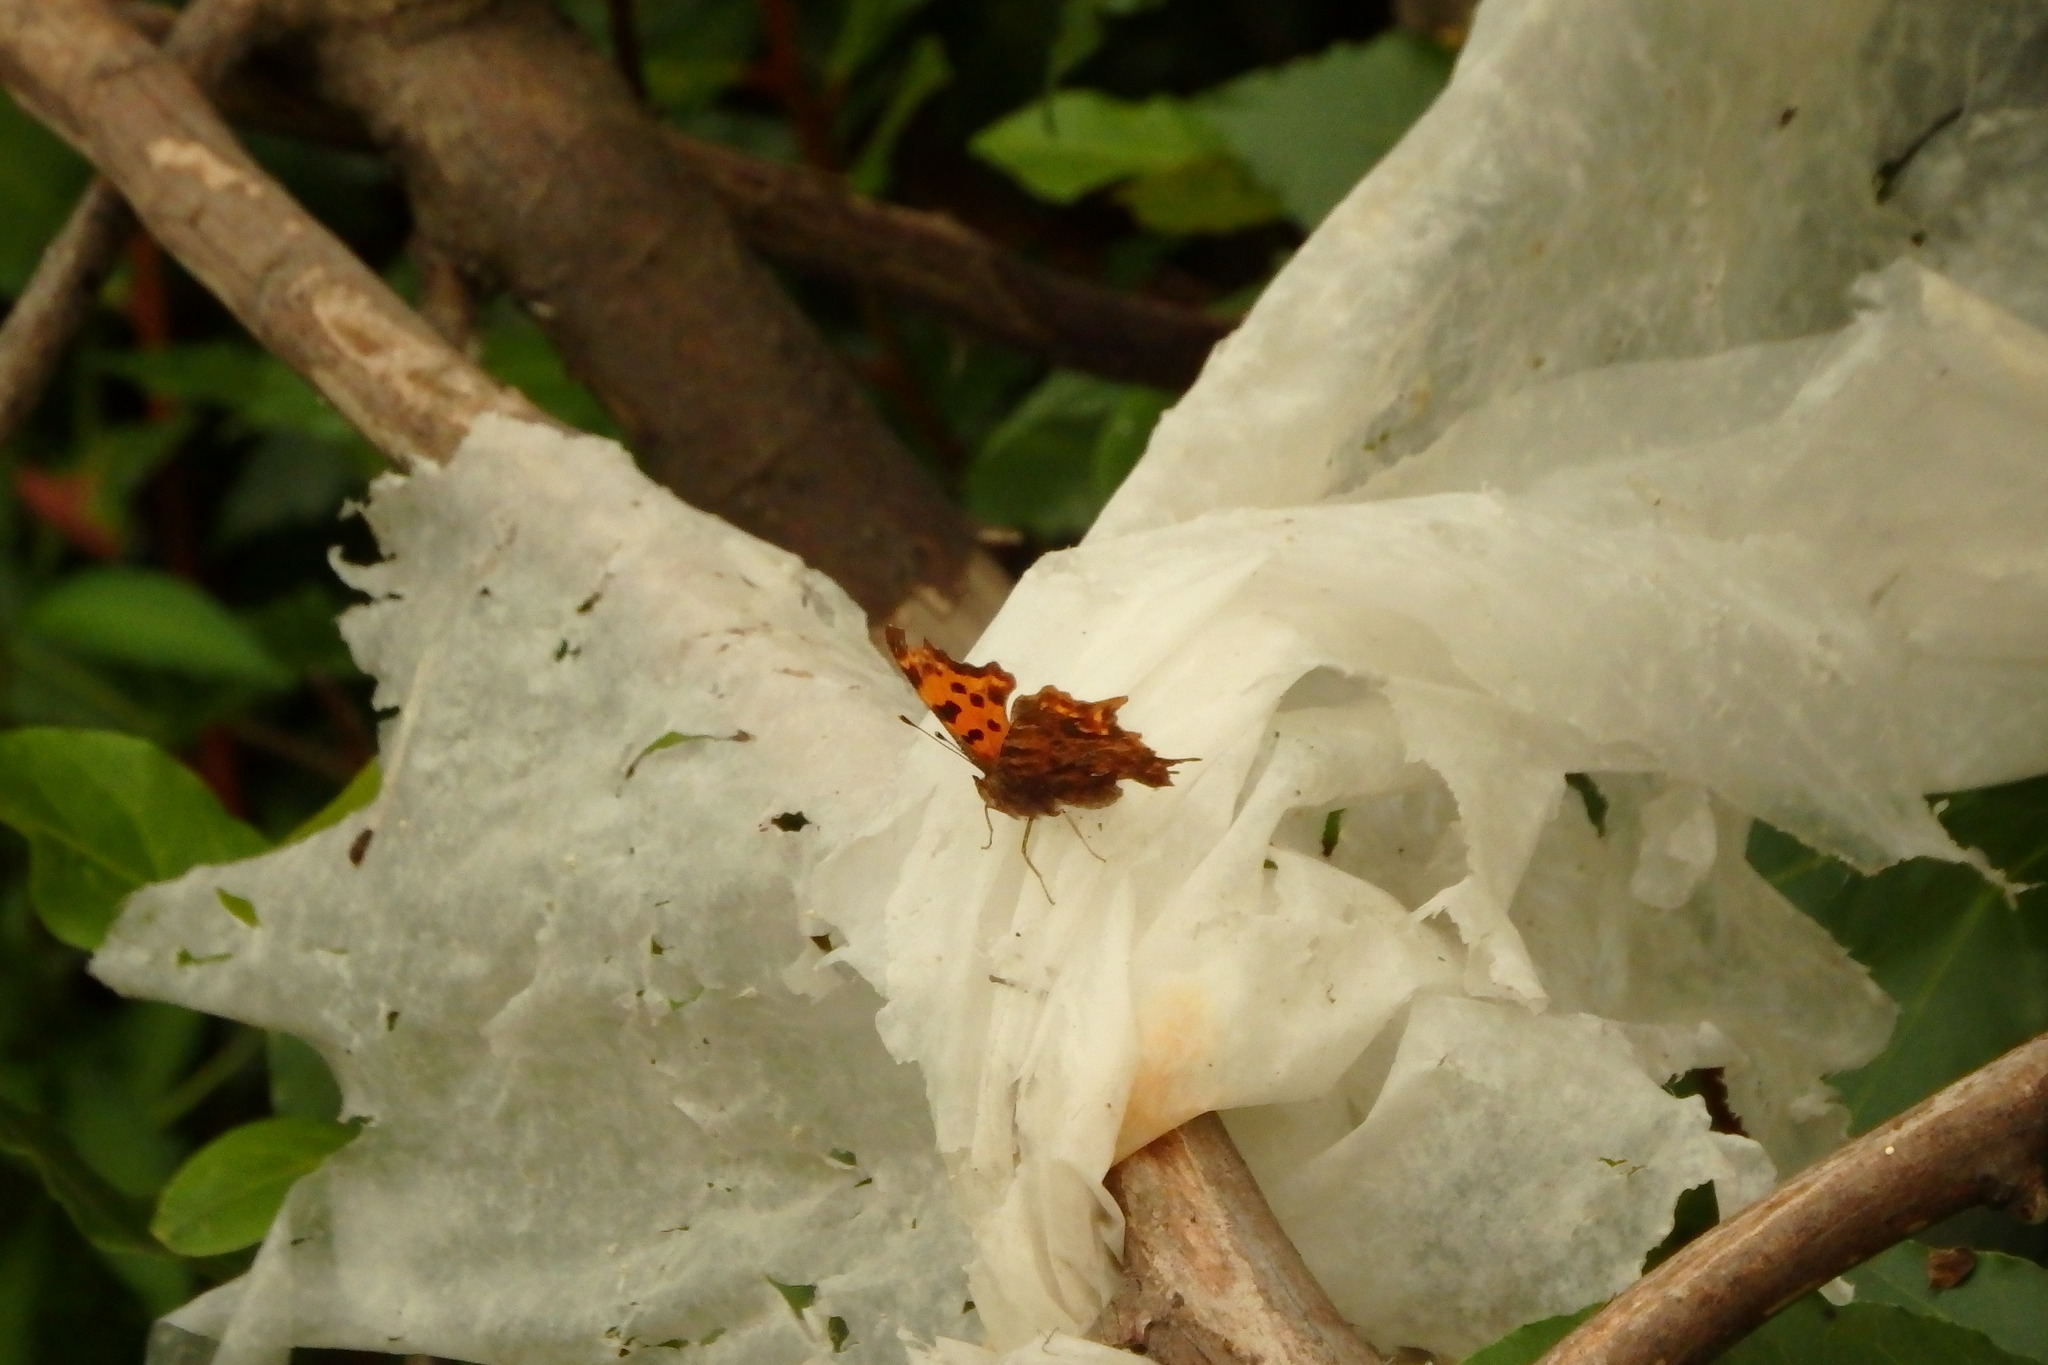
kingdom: Animalia
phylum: Arthropoda
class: Insecta
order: Lepidoptera
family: Nymphalidae
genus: Polygonia
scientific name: Polygonia c-album
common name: Comma
